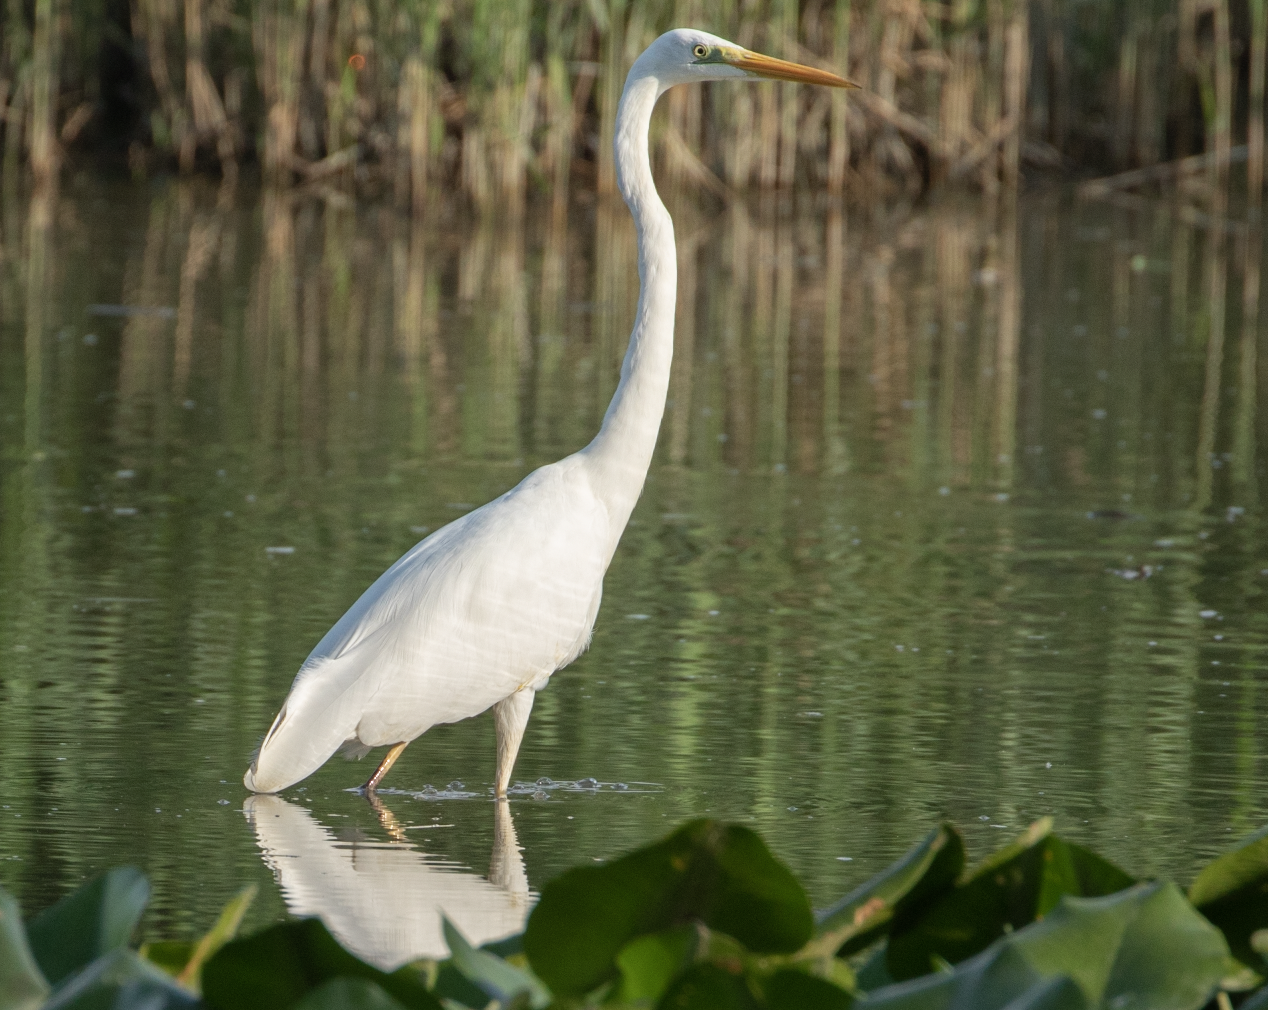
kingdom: Animalia
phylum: Chordata
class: Aves
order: Pelecaniformes
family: Ardeidae
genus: Ardea
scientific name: Ardea alba
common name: Great egret
